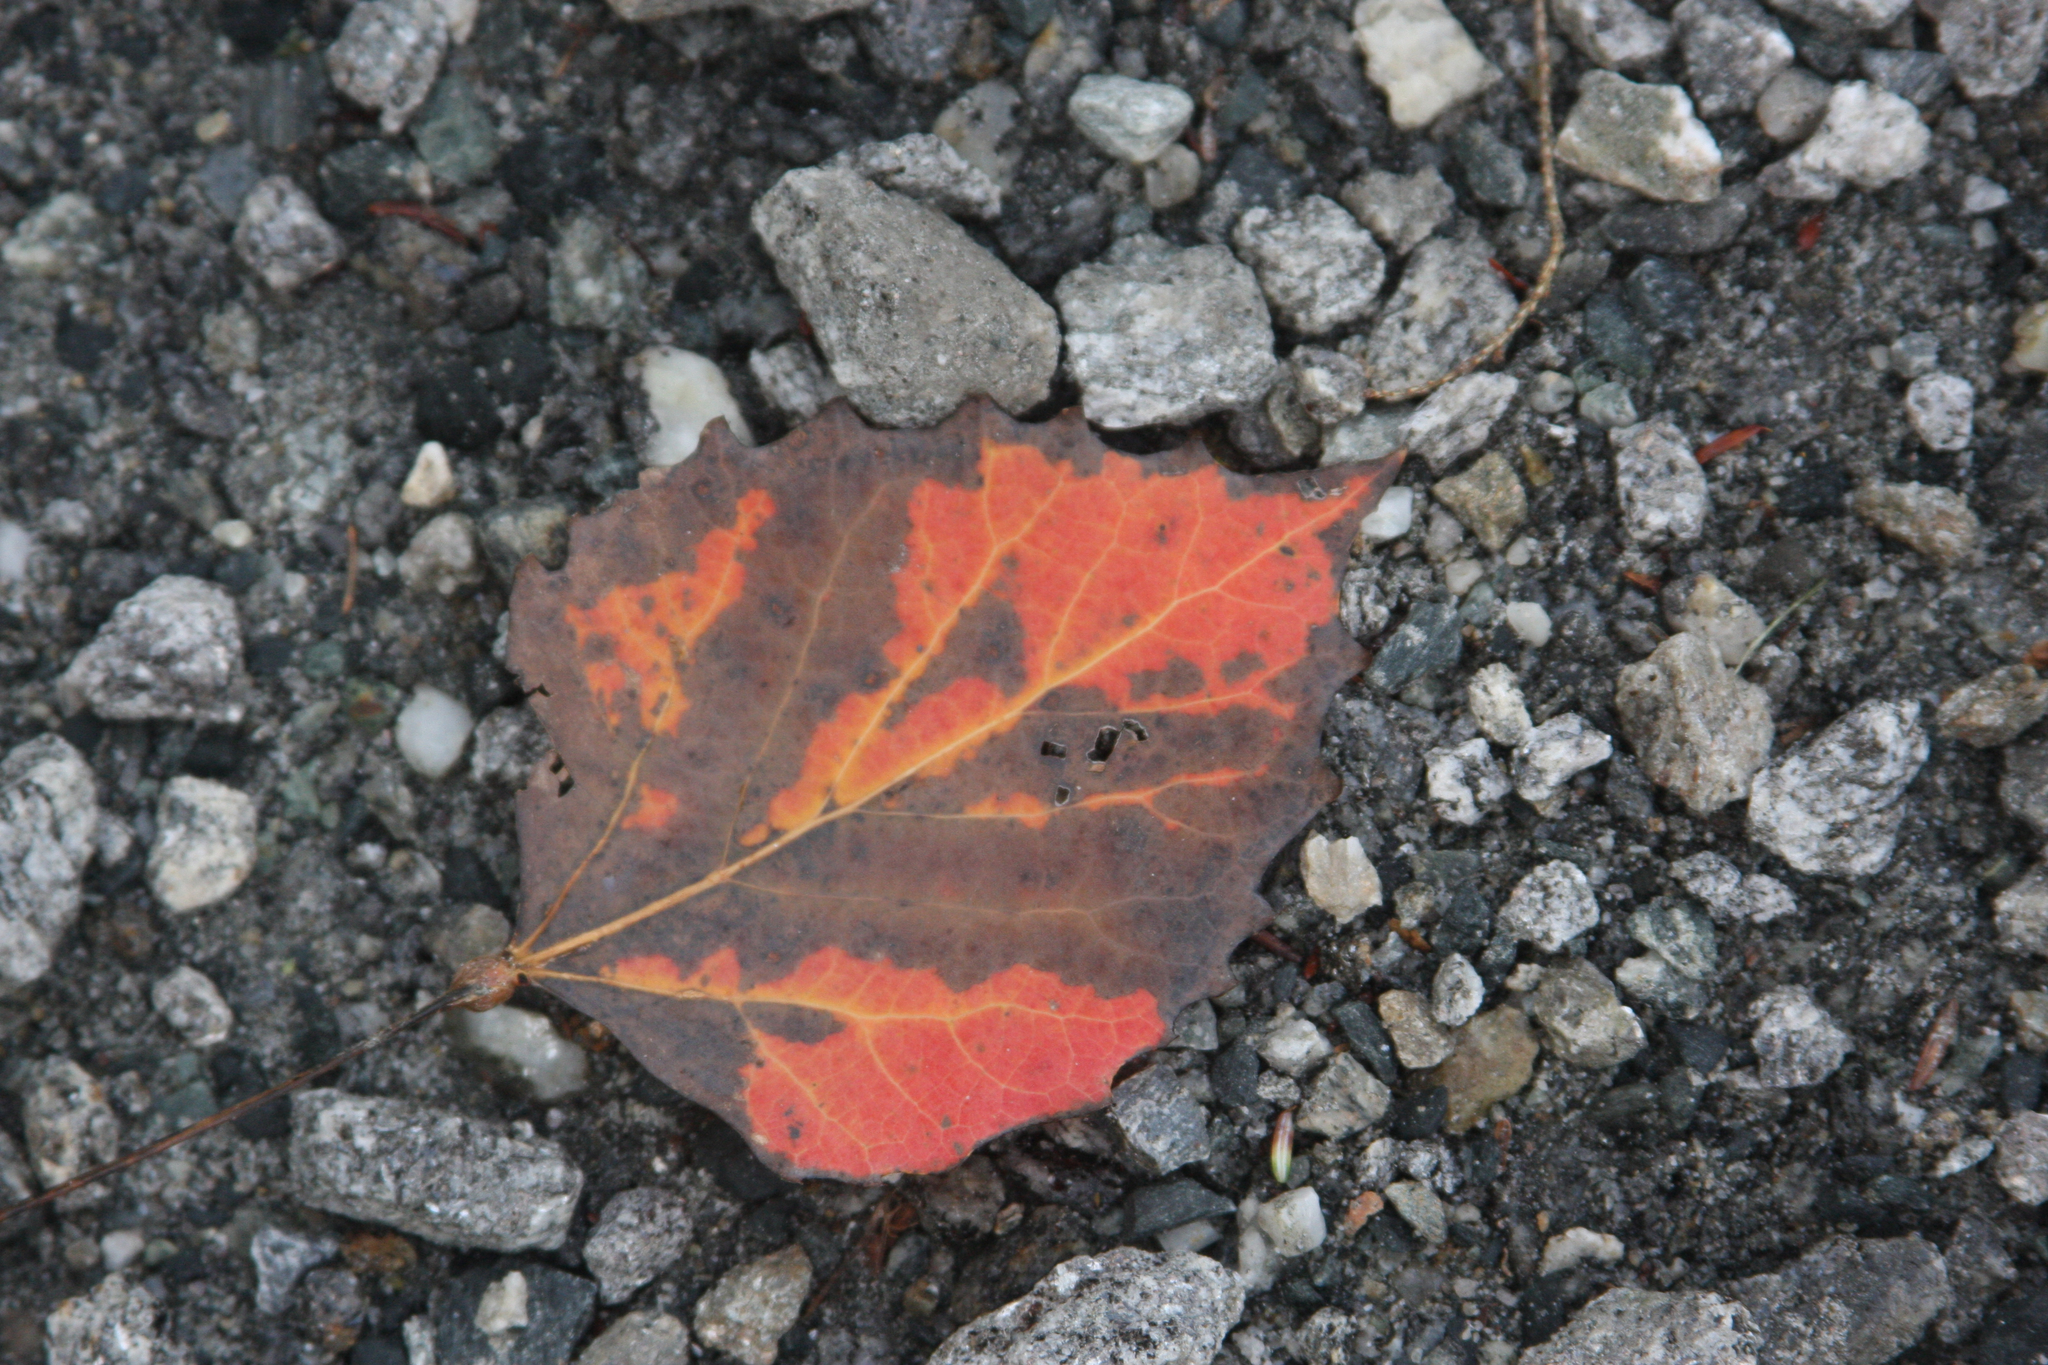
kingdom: Plantae
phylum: Tracheophyta
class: Magnoliopsida
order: Malpighiales
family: Salicaceae
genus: Populus
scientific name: Populus grandidentata
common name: Bigtooth aspen
